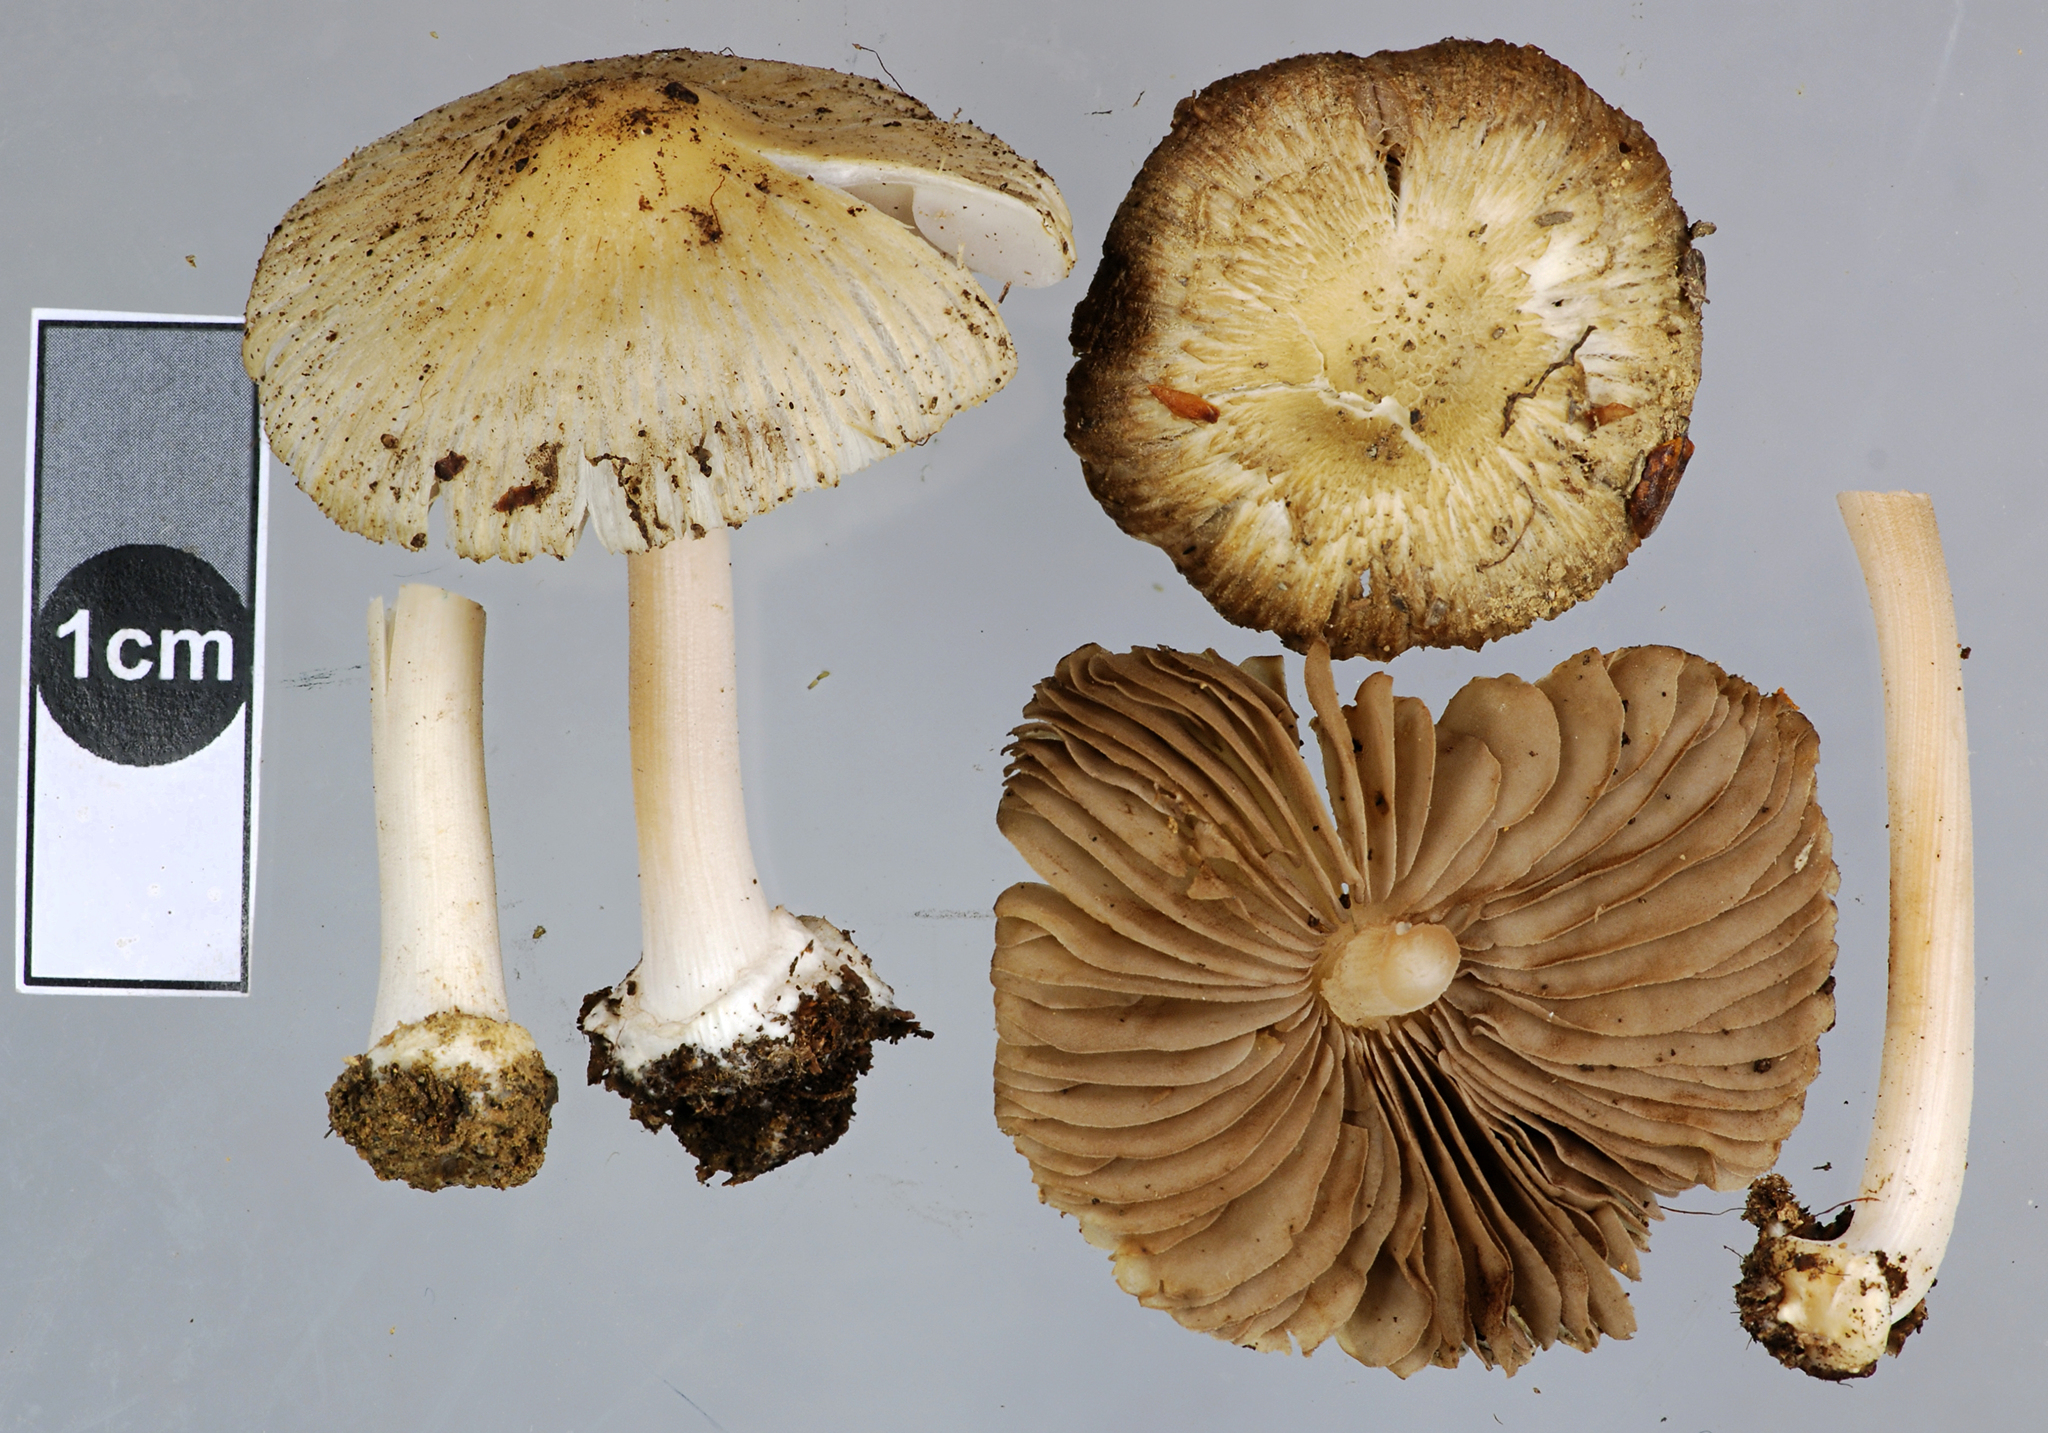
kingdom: Fungi
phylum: Basidiomycota
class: Agaricomycetes
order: Agaricales
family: Inocybaceae
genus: Inocybe
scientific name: Inocybe sylvicola
